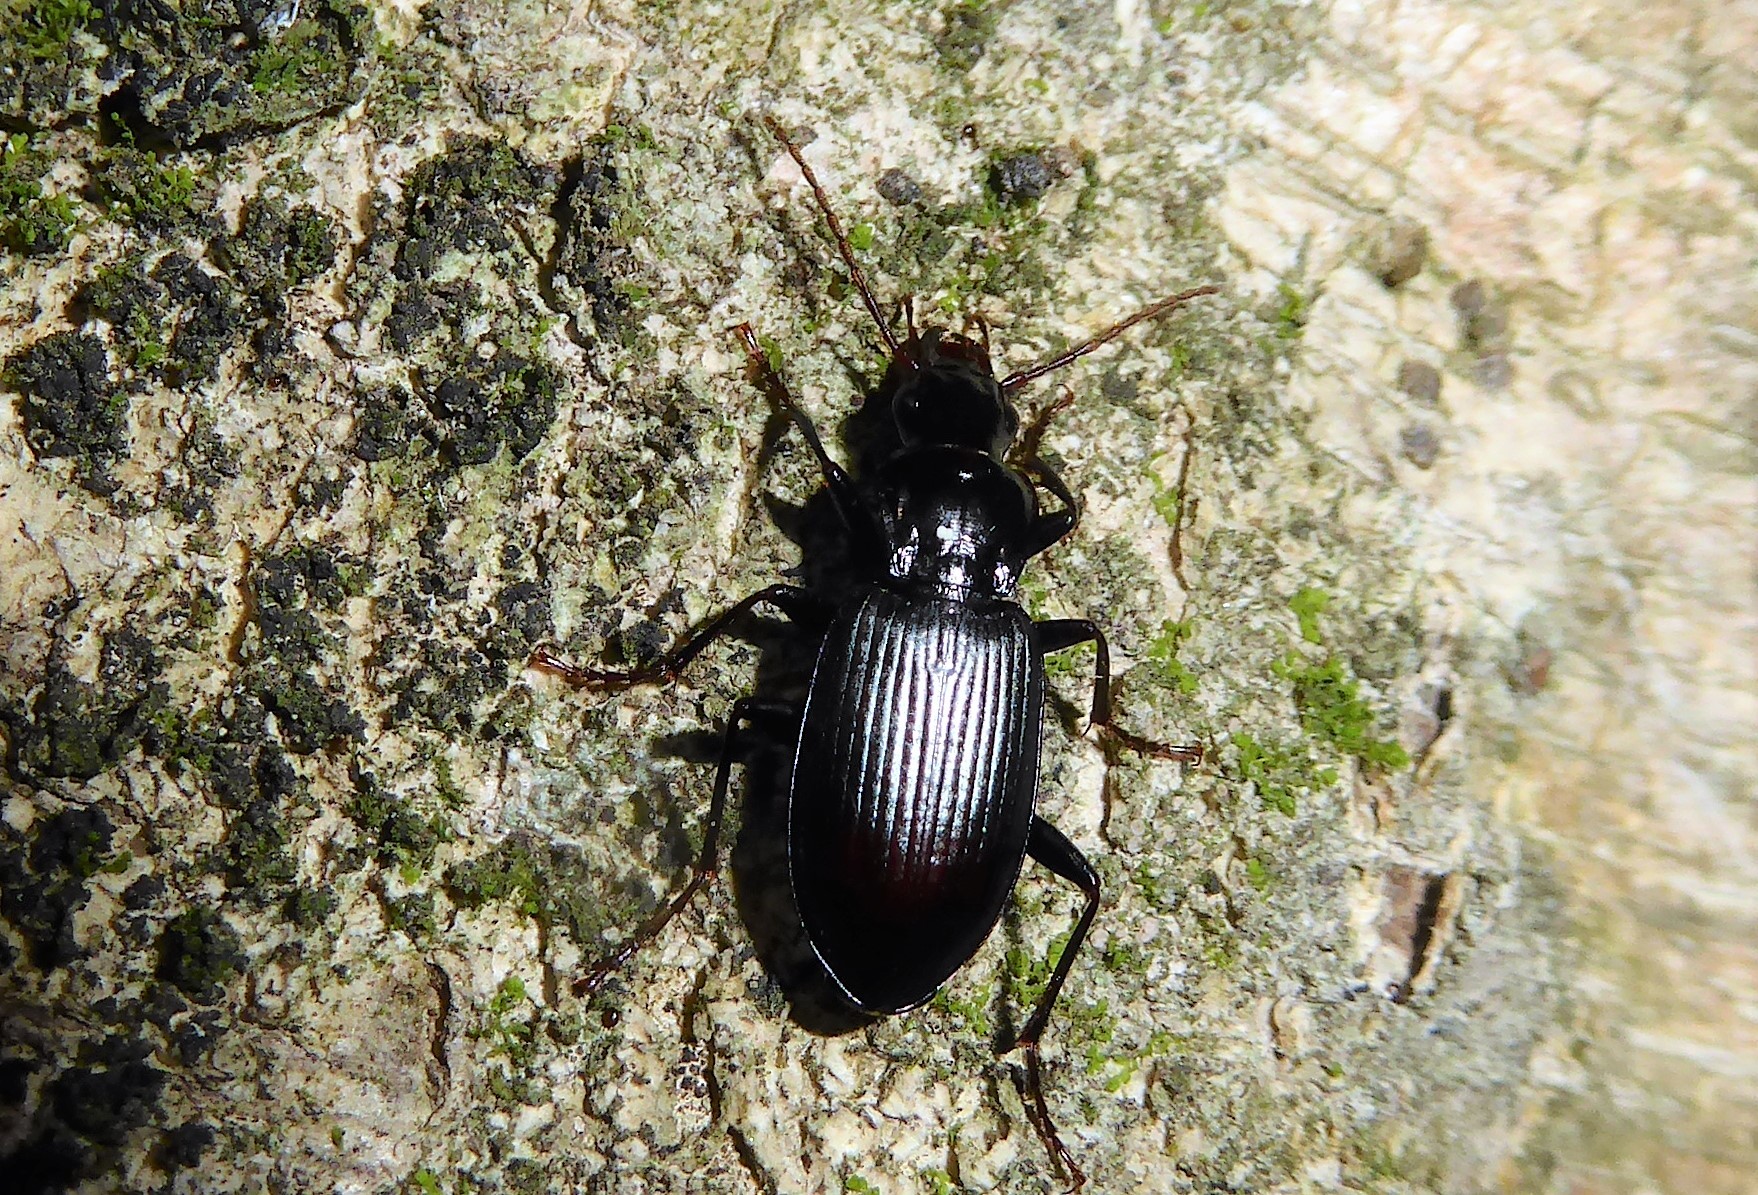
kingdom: Animalia
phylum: Arthropoda
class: Insecta
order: Coleoptera
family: Carabidae
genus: Laemostenus
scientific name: Laemostenus complanatus
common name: Cosmopolitan ground beetle
